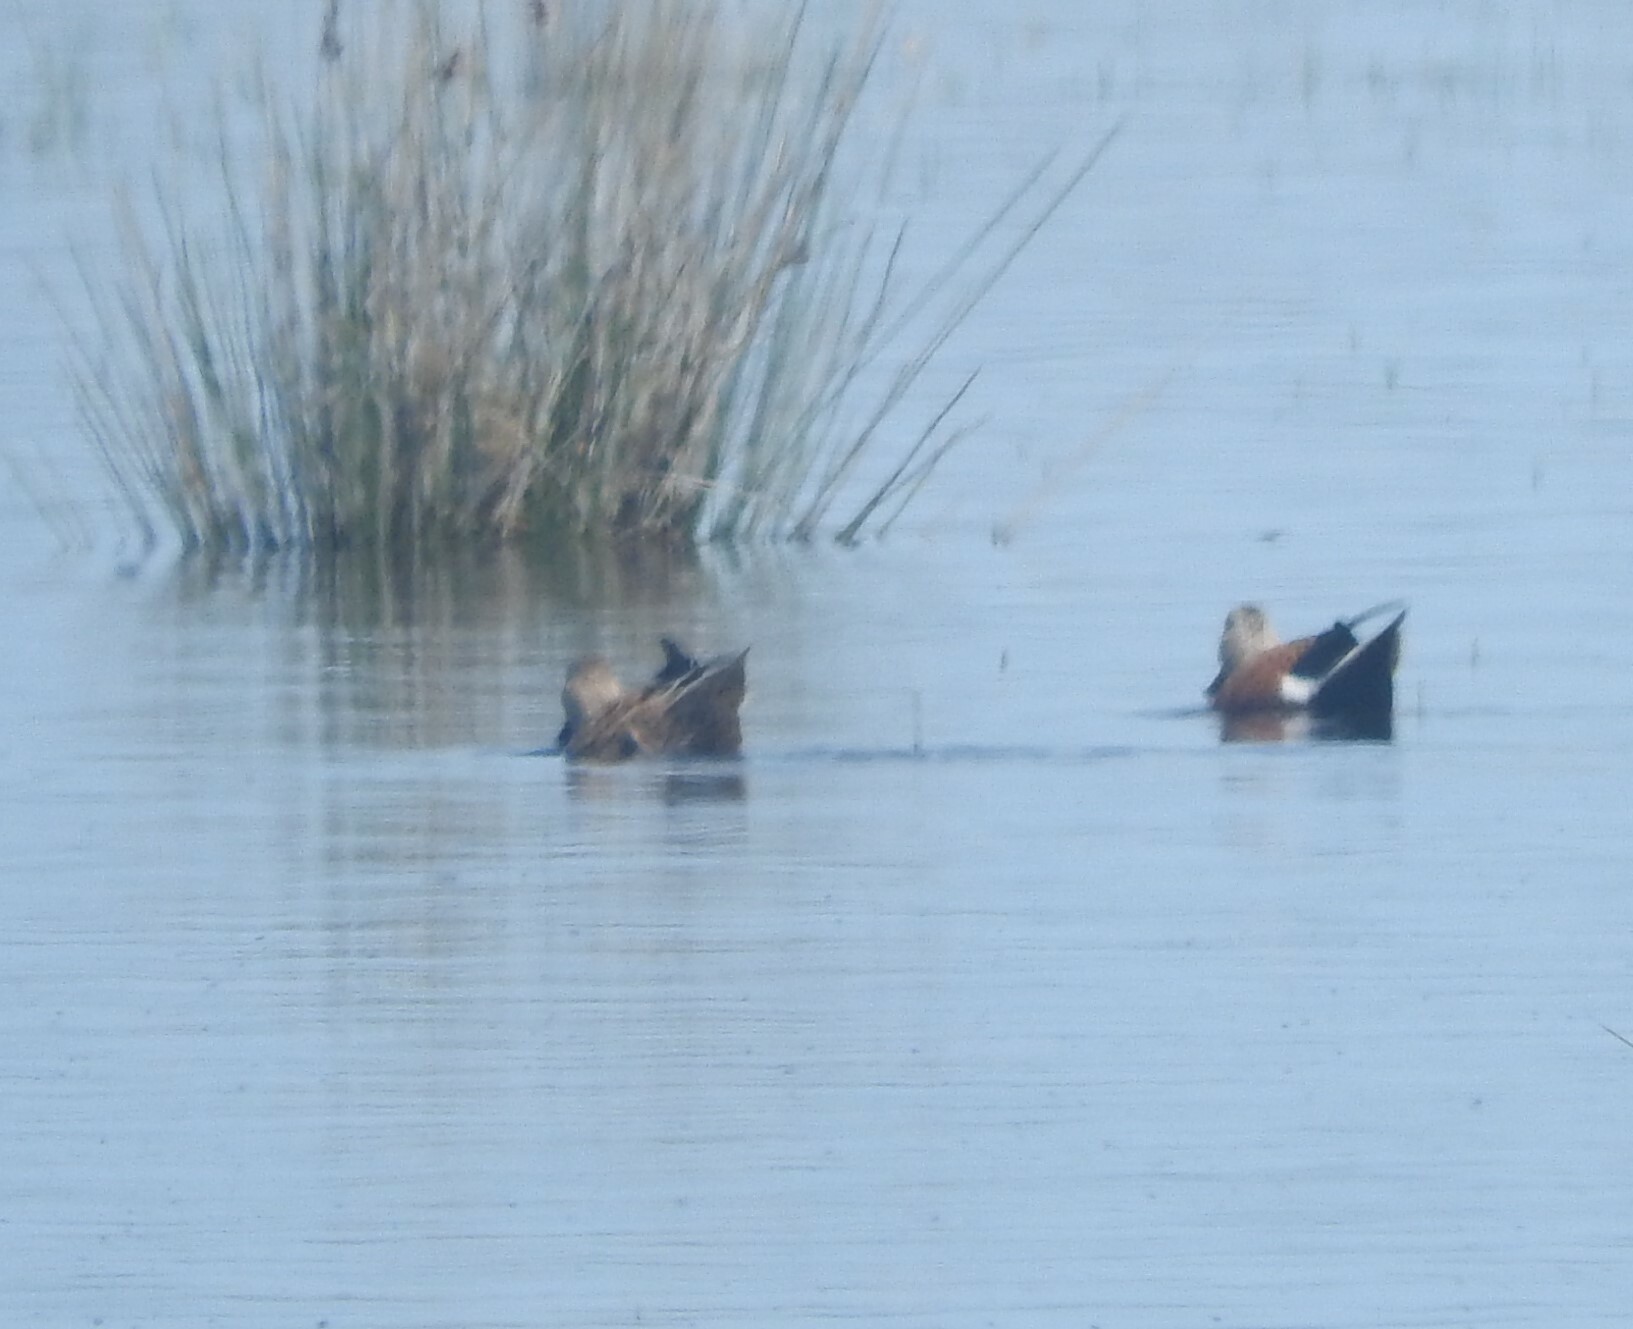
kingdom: Animalia
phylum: Chordata
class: Aves
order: Anseriformes
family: Anatidae
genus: Spatula
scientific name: Spatula platalea
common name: Red shoveler
